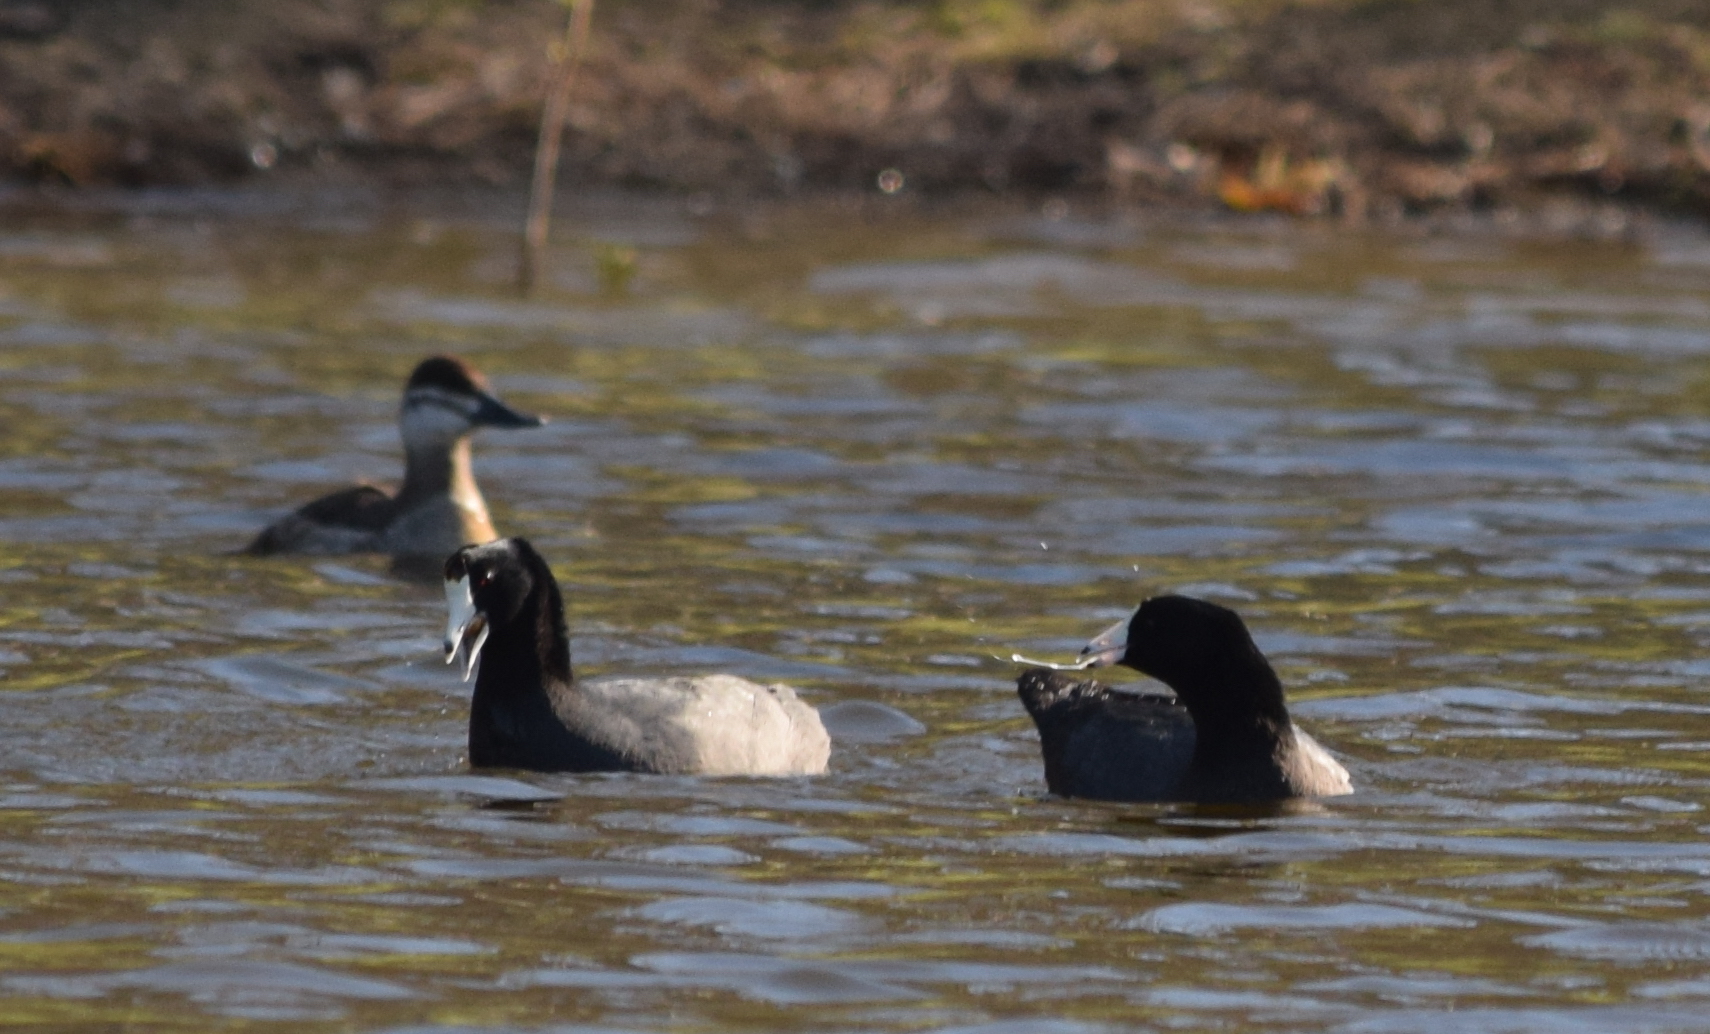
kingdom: Animalia
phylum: Chordata
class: Aves
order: Gruiformes
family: Rallidae
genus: Fulica
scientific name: Fulica americana
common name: American coot
